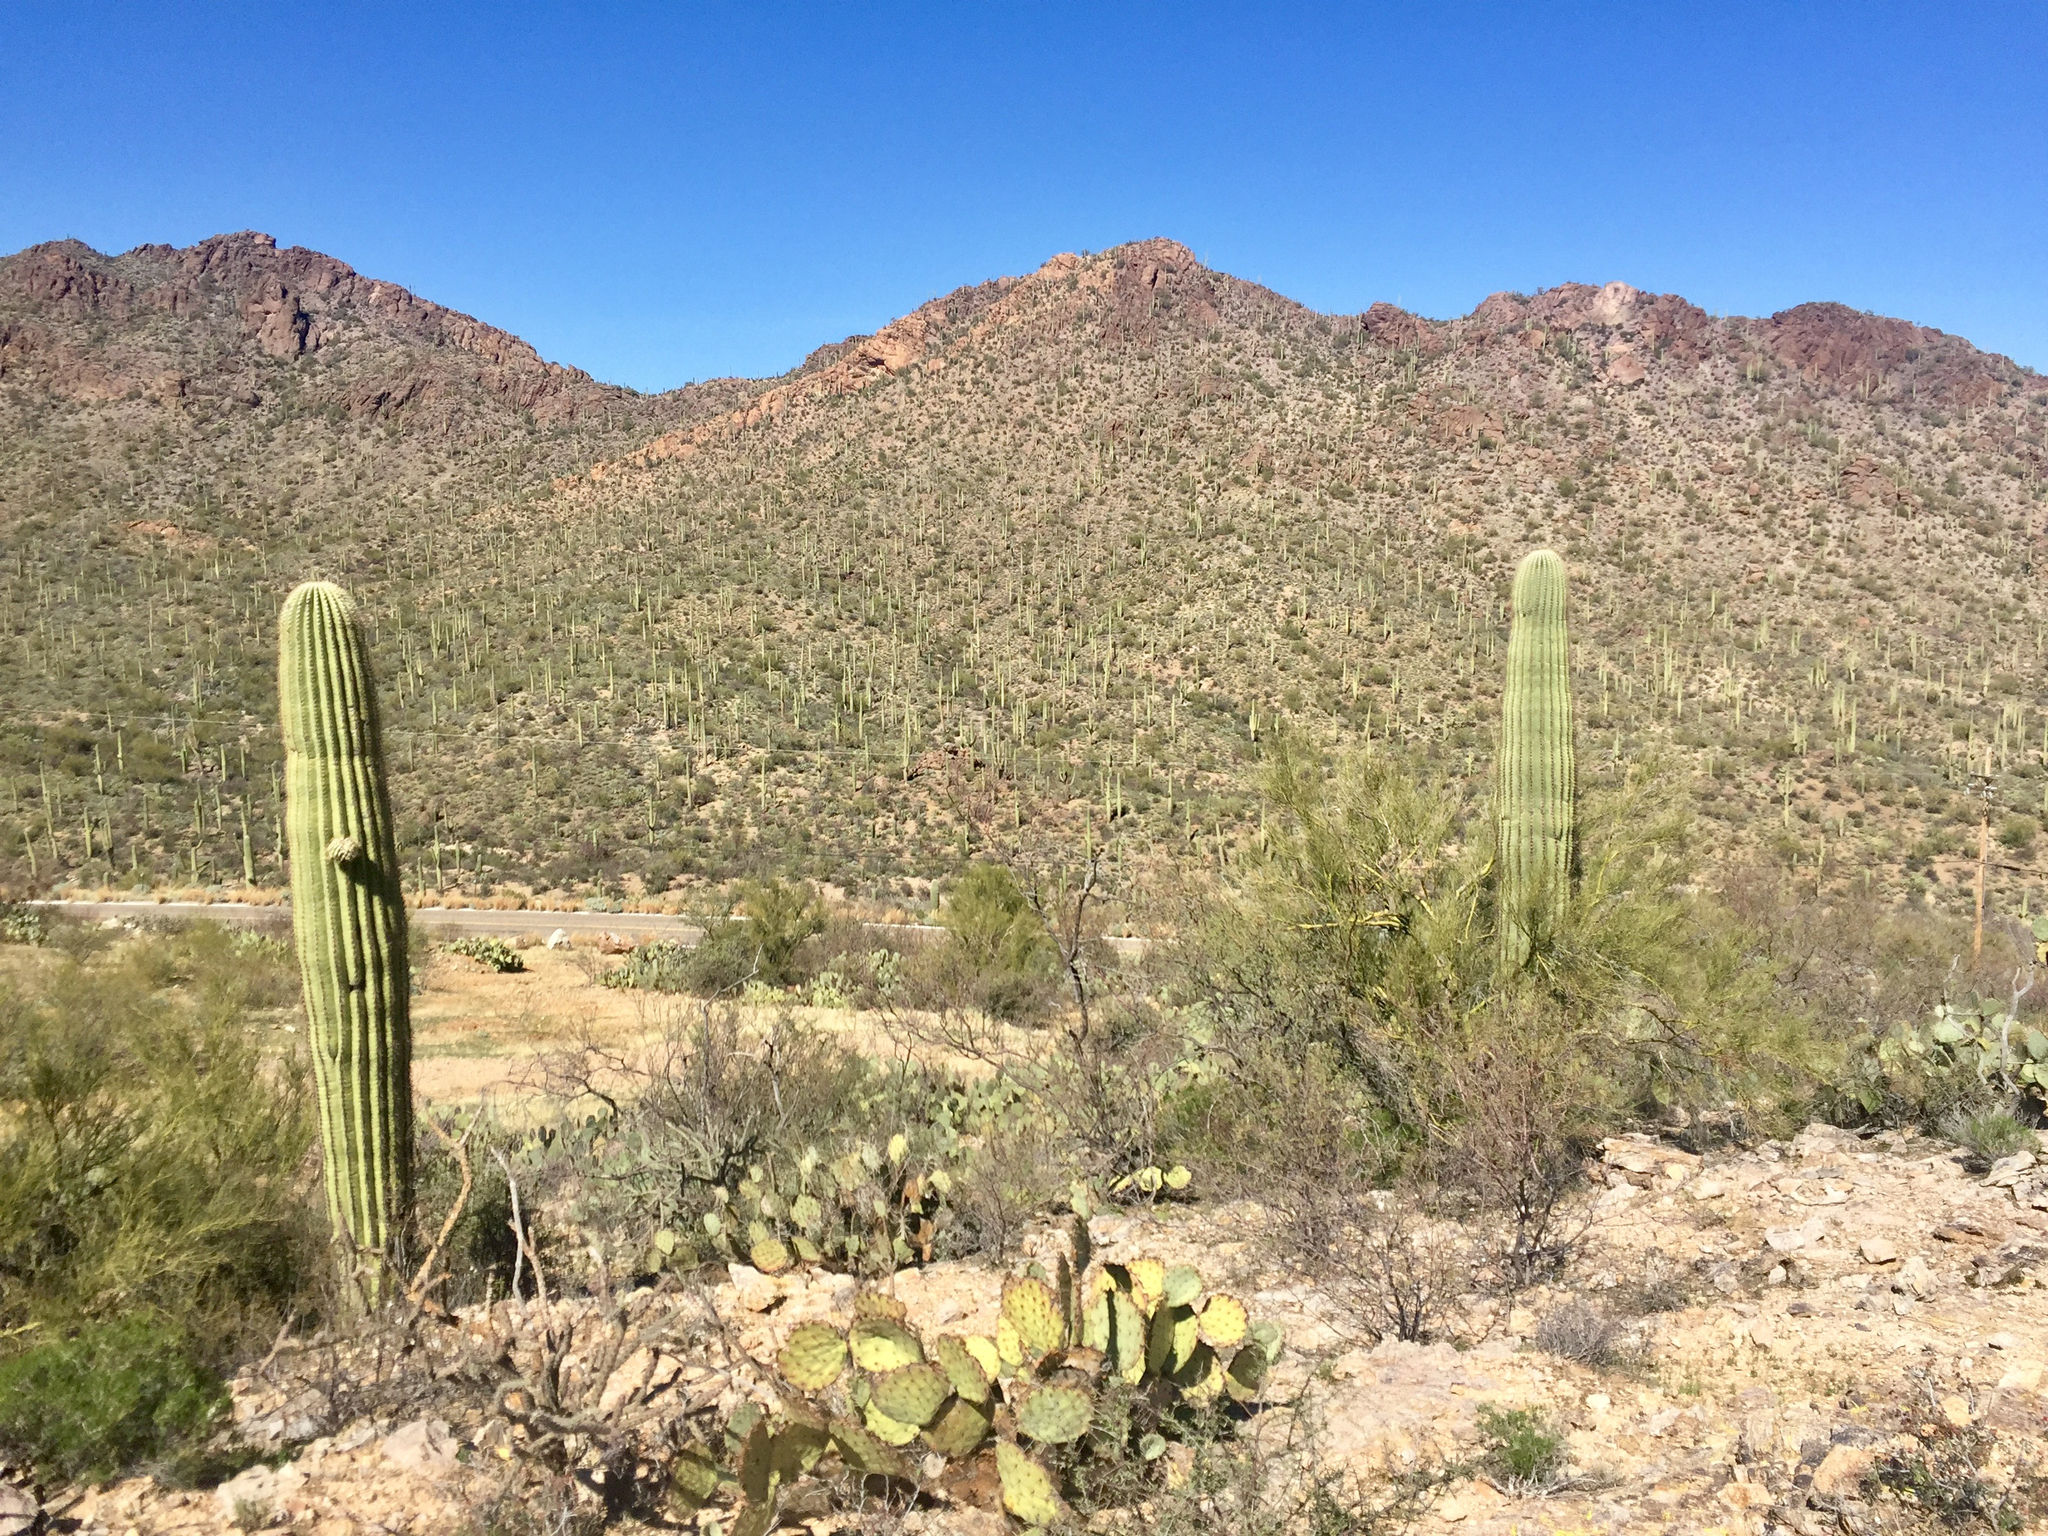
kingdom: Plantae
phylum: Tracheophyta
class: Magnoliopsida
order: Caryophyllales
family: Cactaceae
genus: Carnegiea
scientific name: Carnegiea gigantea
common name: Saguaro
